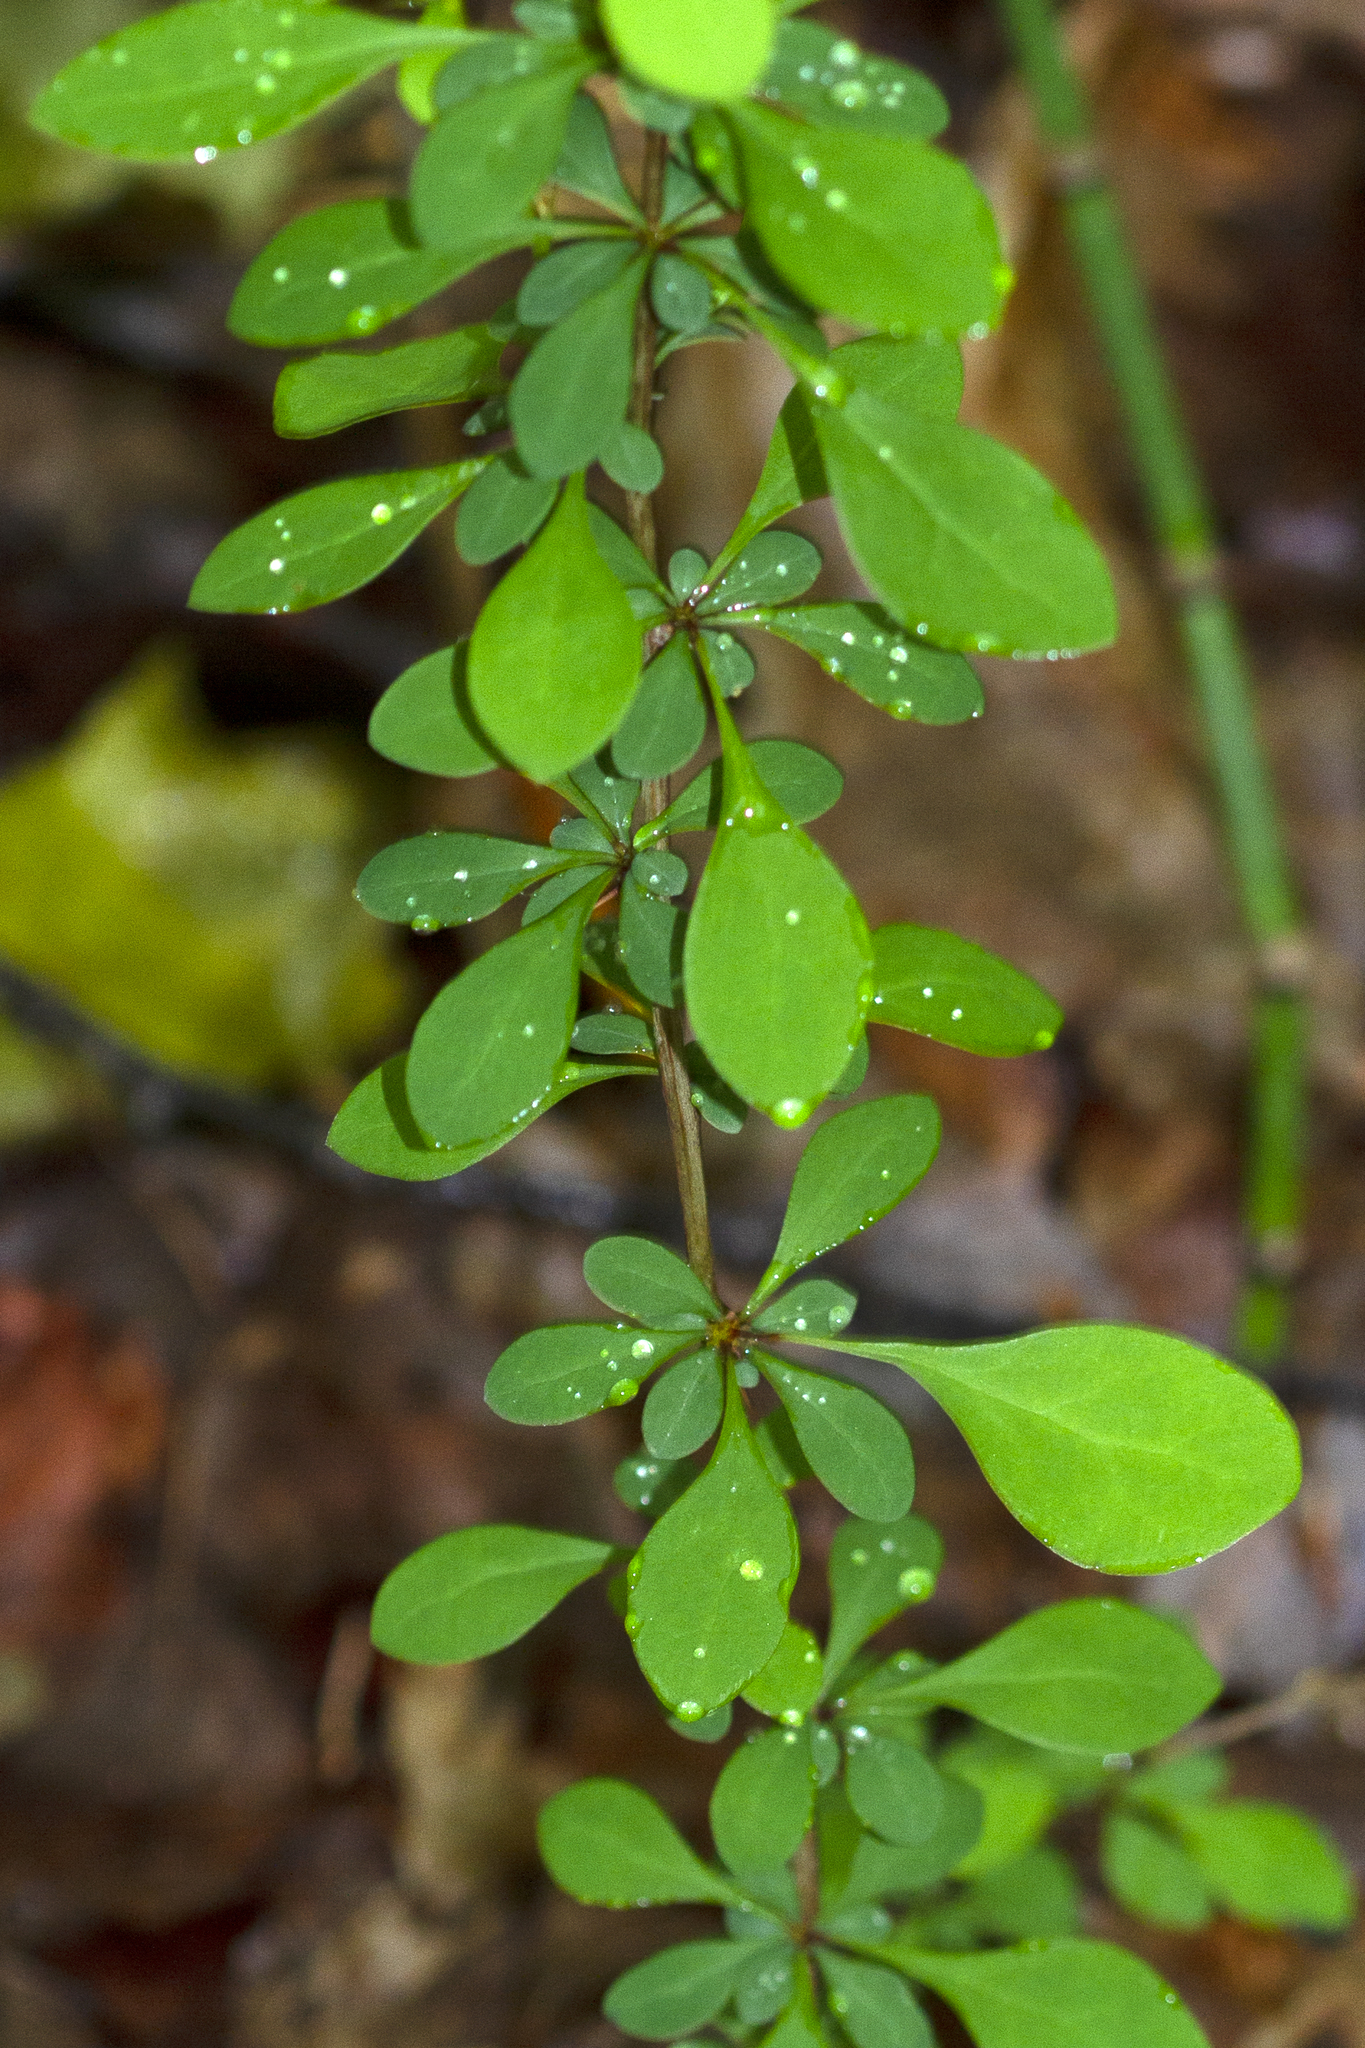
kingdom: Plantae
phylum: Tracheophyta
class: Magnoliopsida
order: Ranunculales
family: Berberidaceae
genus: Berberis
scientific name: Berberis thunbergii
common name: Japanese barberry
